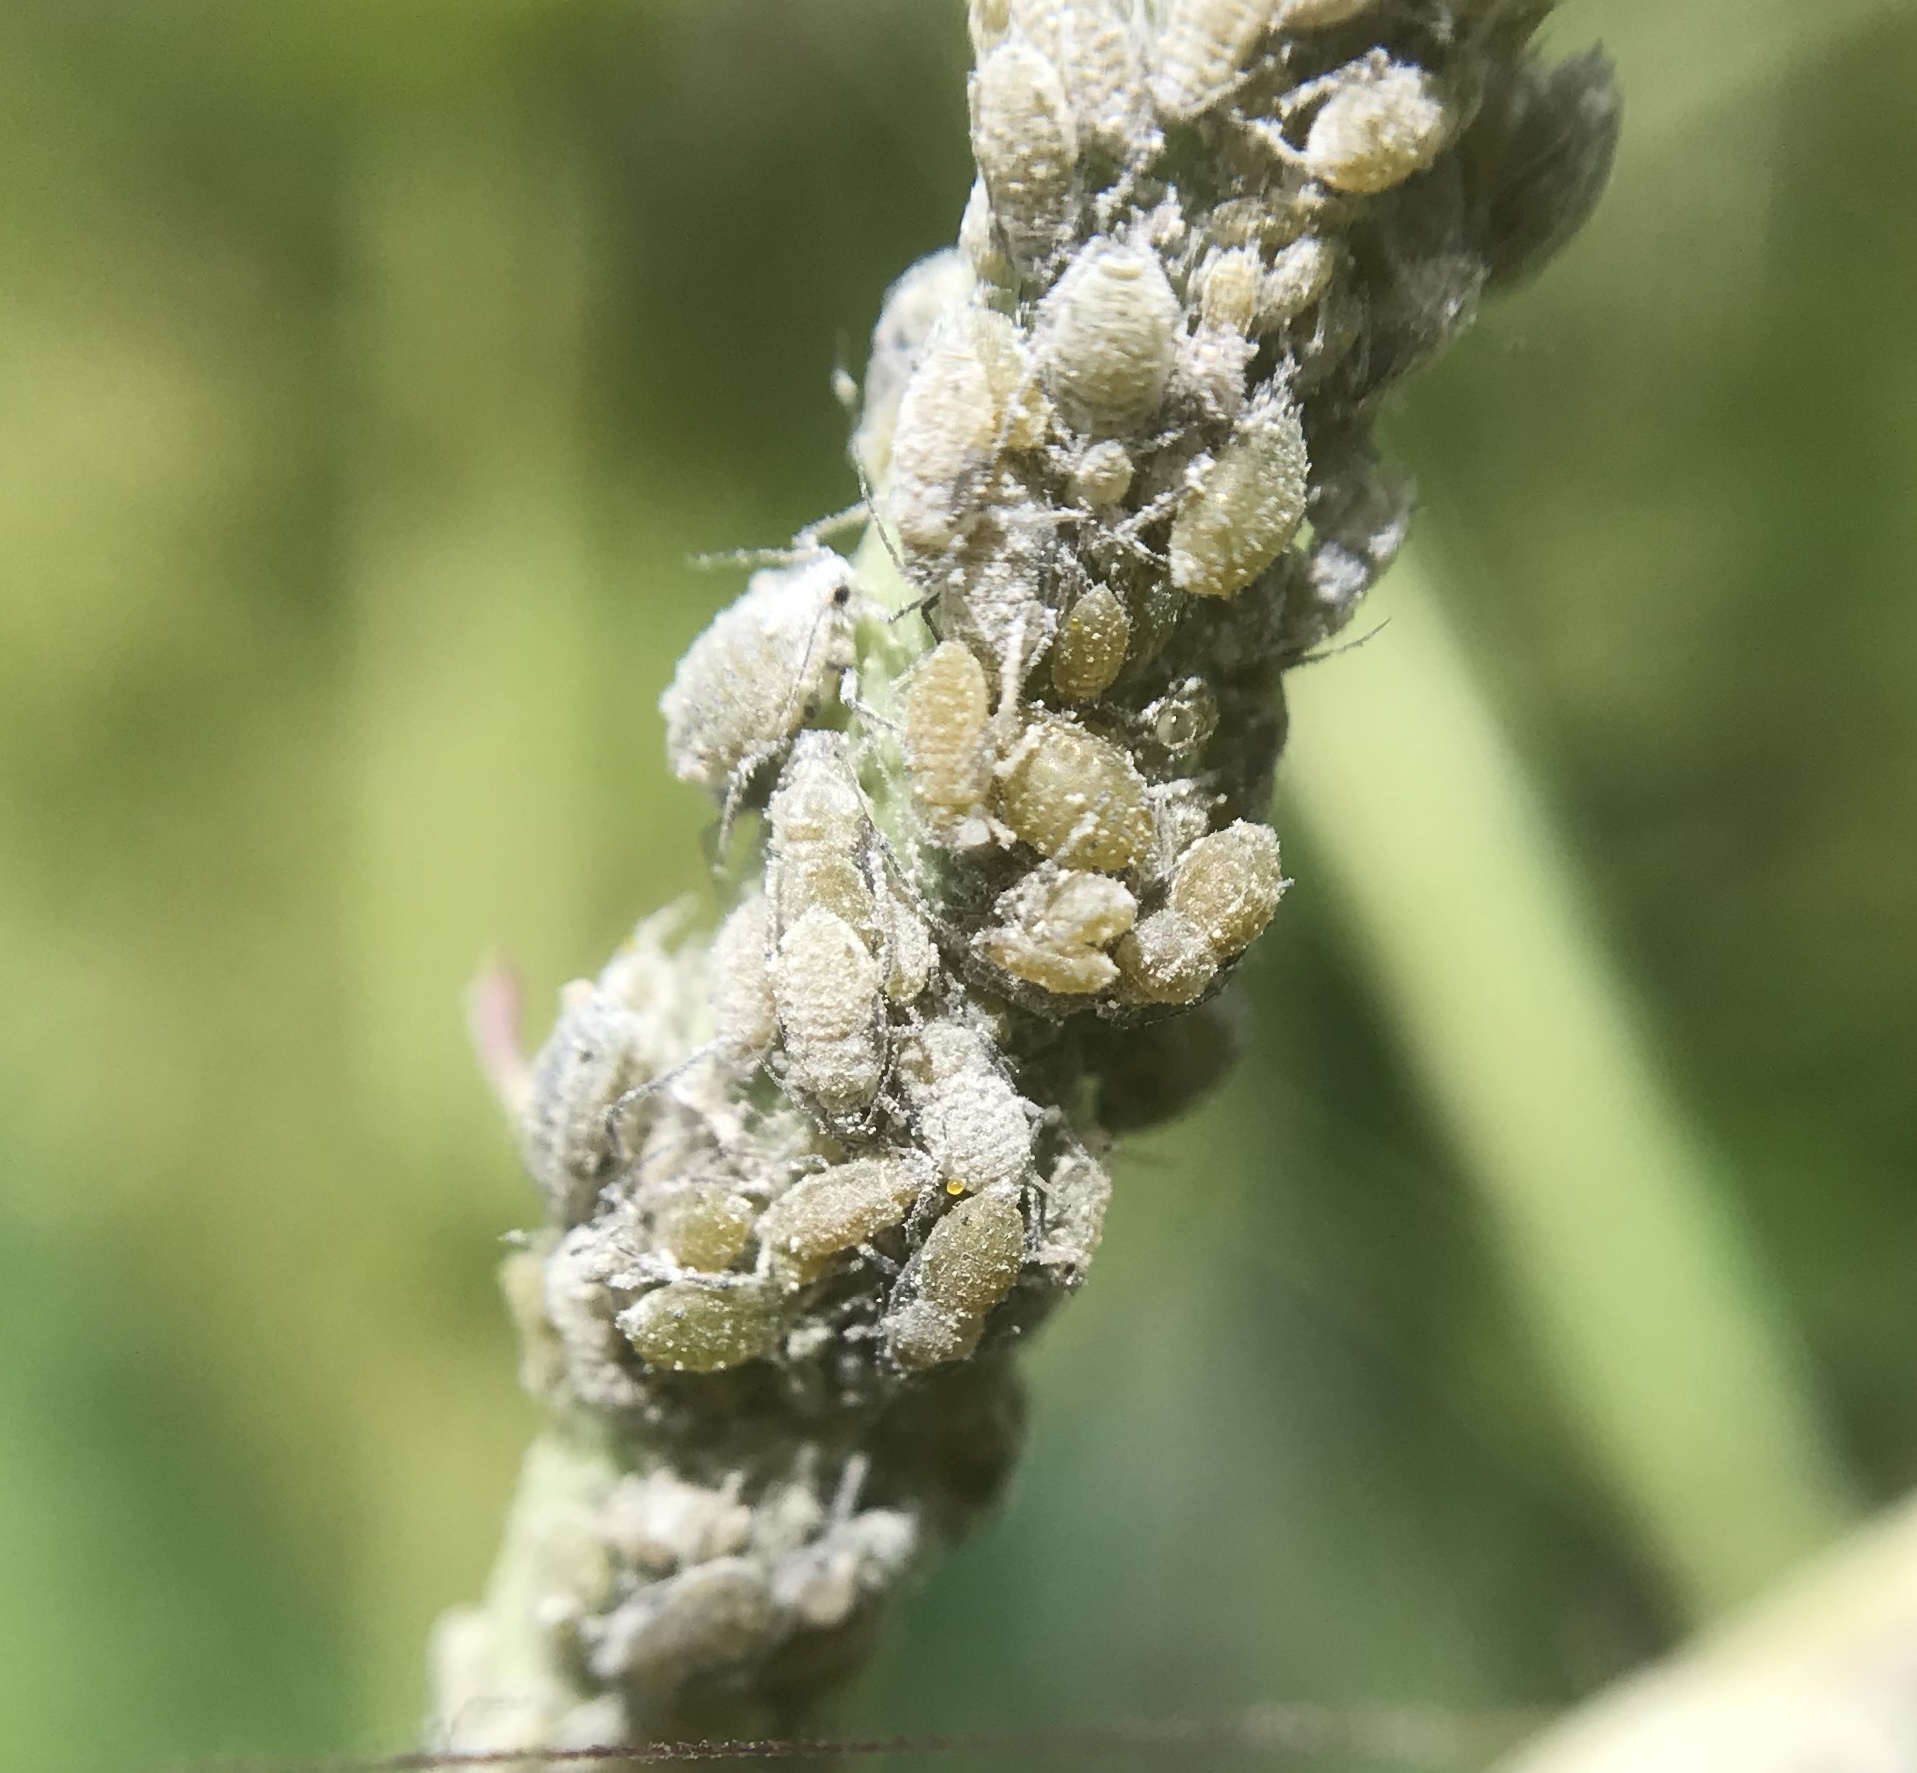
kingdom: Animalia
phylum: Arthropoda
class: Insecta
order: Hemiptera
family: Aphididae
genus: Brevicoryne
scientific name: Brevicoryne brassicae
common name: Cabbage aphid
